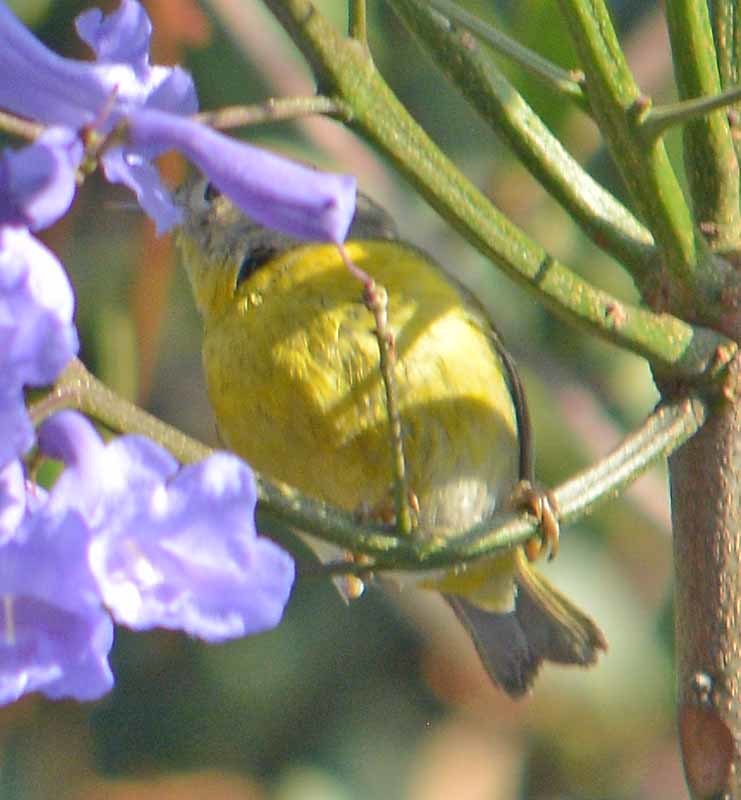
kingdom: Animalia
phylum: Chordata
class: Aves
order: Passeriformes
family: Parulidae
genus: Leiothlypis
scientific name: Leiothlypis ruficapilla
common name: Nashville warbler
